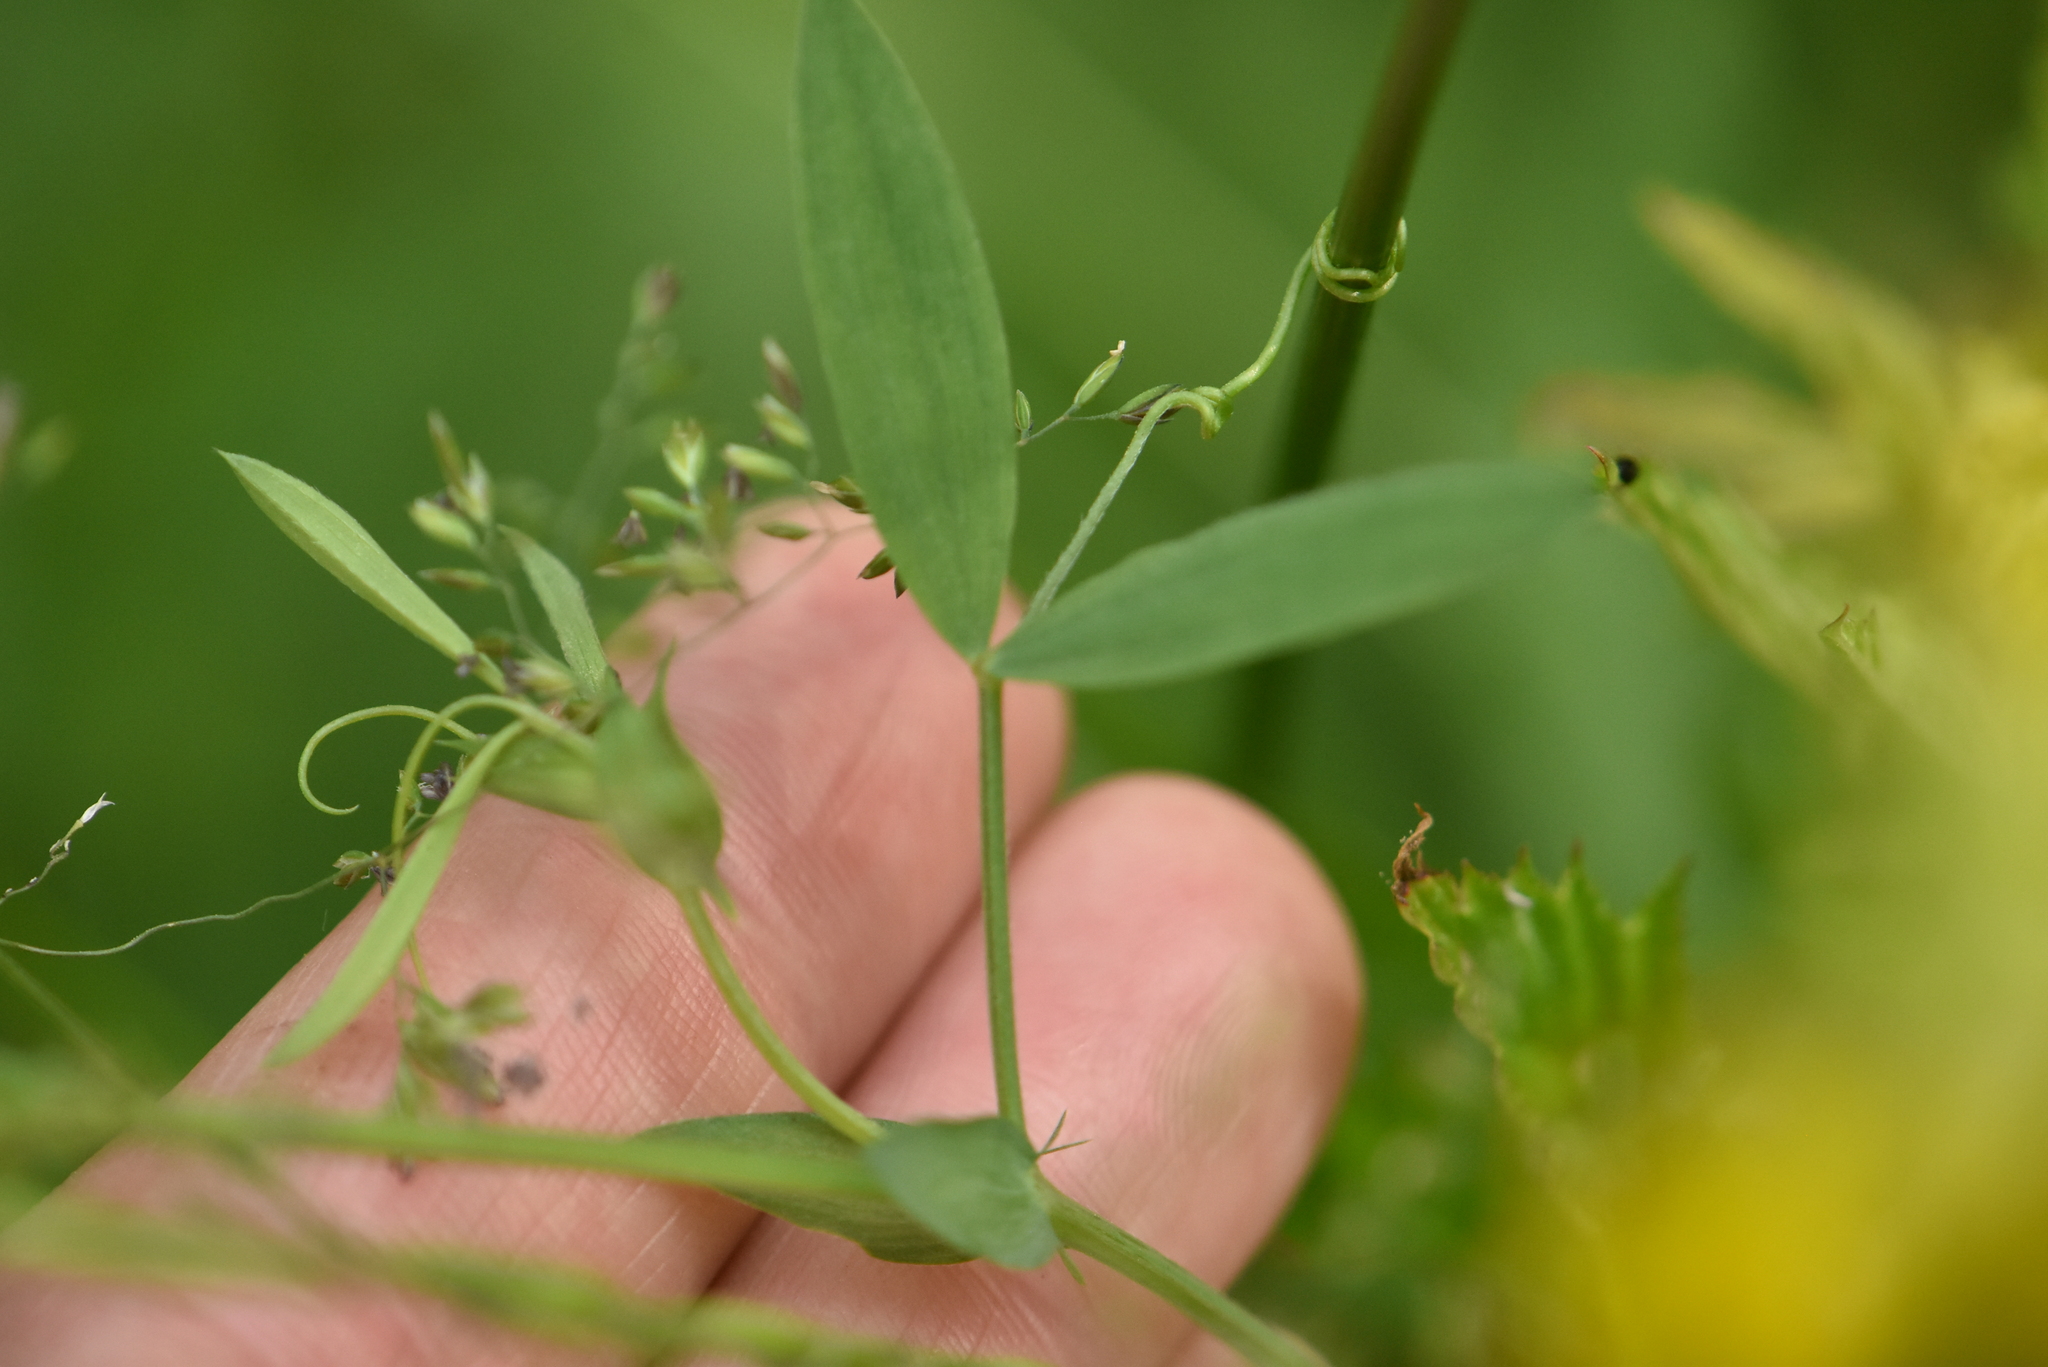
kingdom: Plantae
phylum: Tracheophyta
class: Magnoliopsida
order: Fabales
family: Fabaceae
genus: Lathyrus
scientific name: Lathyrus pratensis
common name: Meadow vetchling
